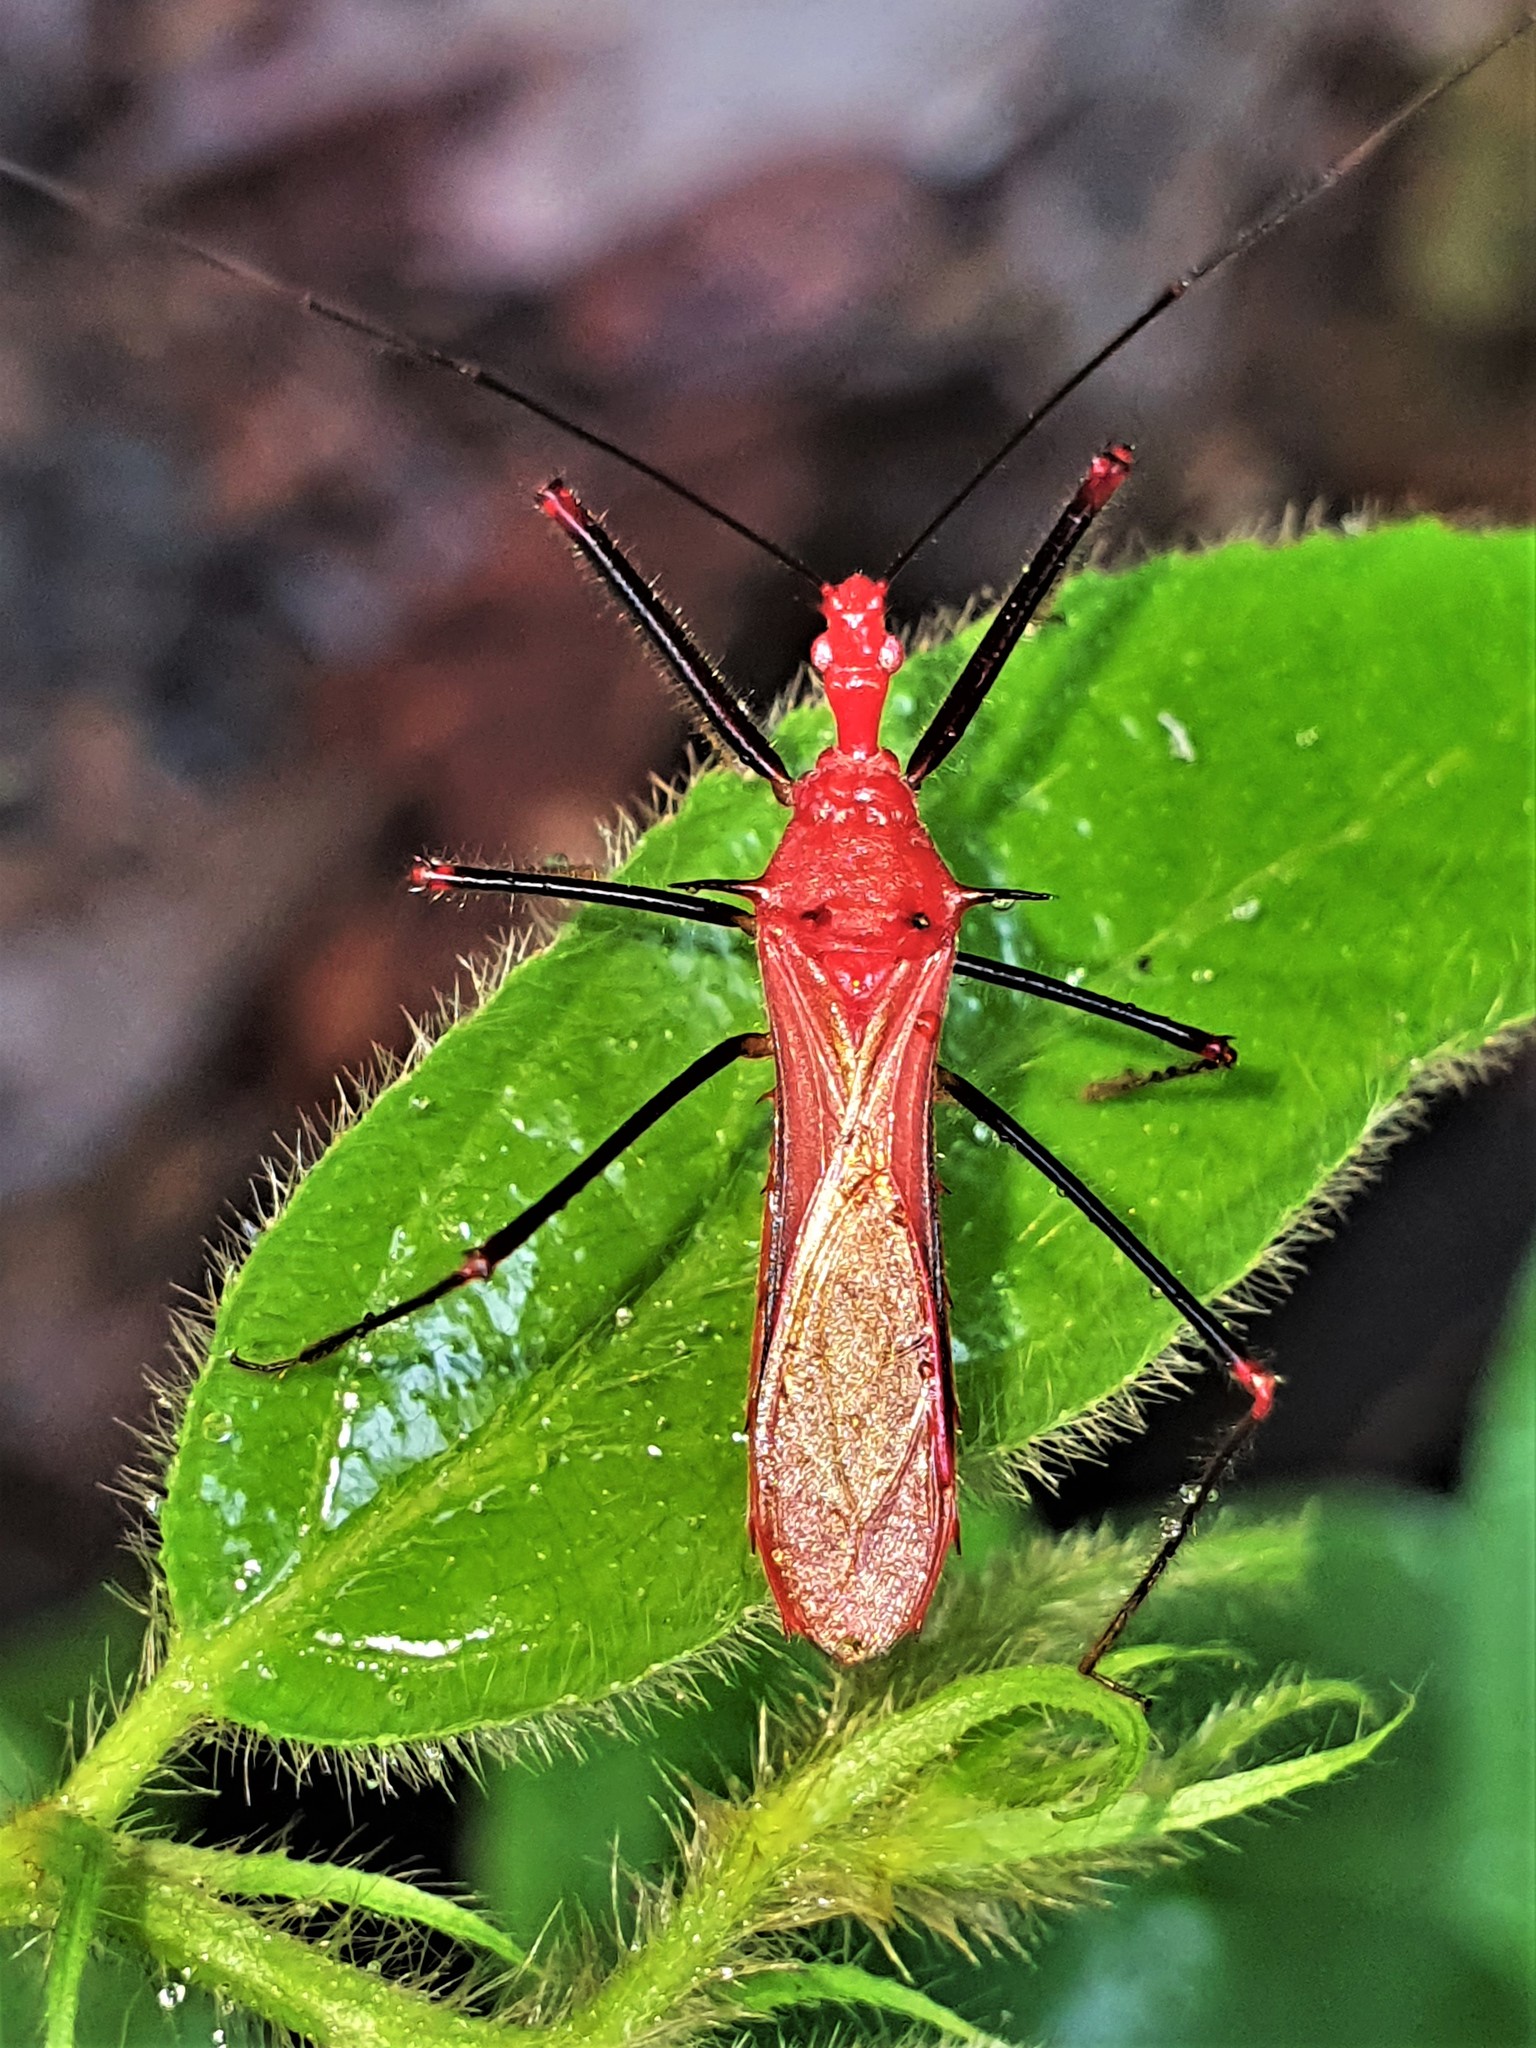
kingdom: Animalia
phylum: Arthropoda
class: Insecta
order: Hemiptera
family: Reduviidae
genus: Ricolla
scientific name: Ricolla quadrispinosa
